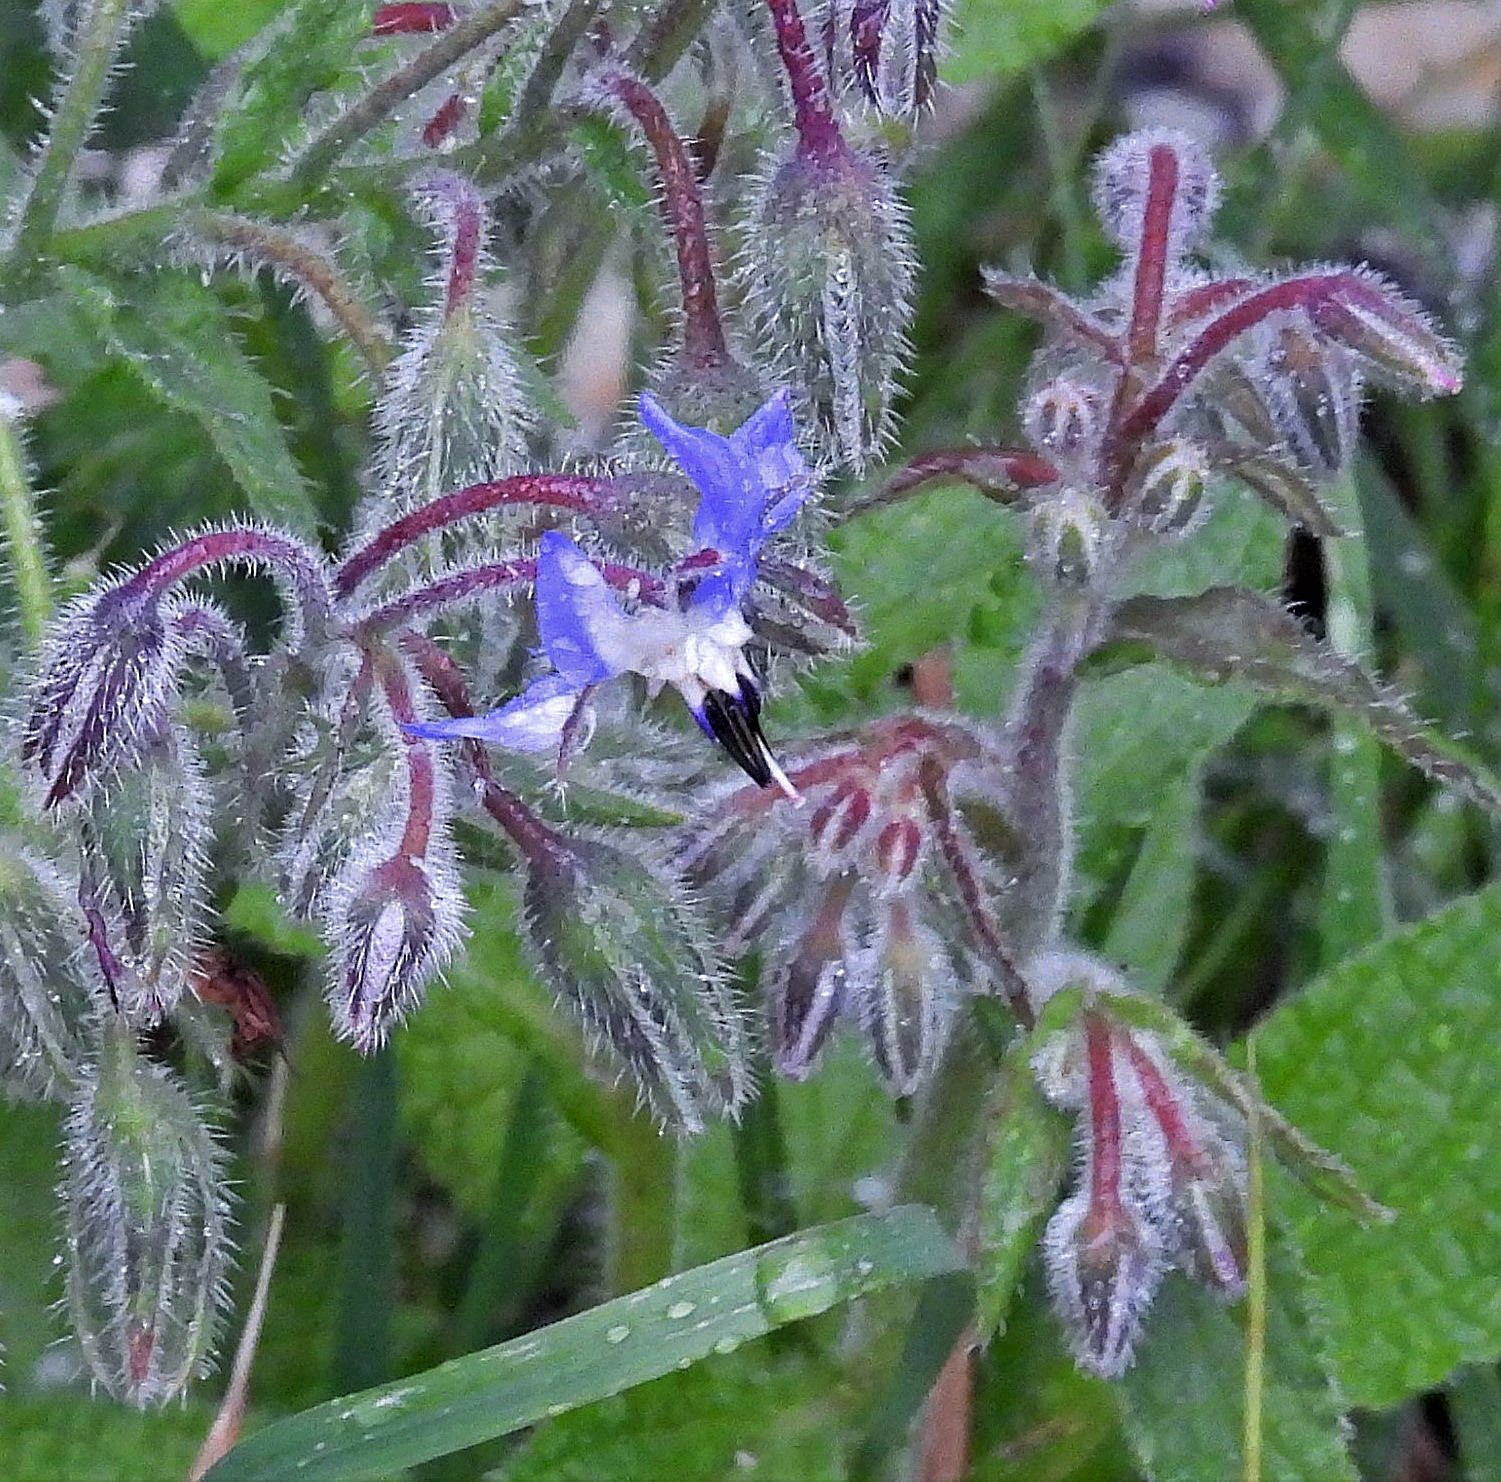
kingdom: Plantae
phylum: Tracheophyta
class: Magnoliopsida
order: Boraginales
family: Boraginaceae
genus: Borago
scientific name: Borago officinalis
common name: Borage
